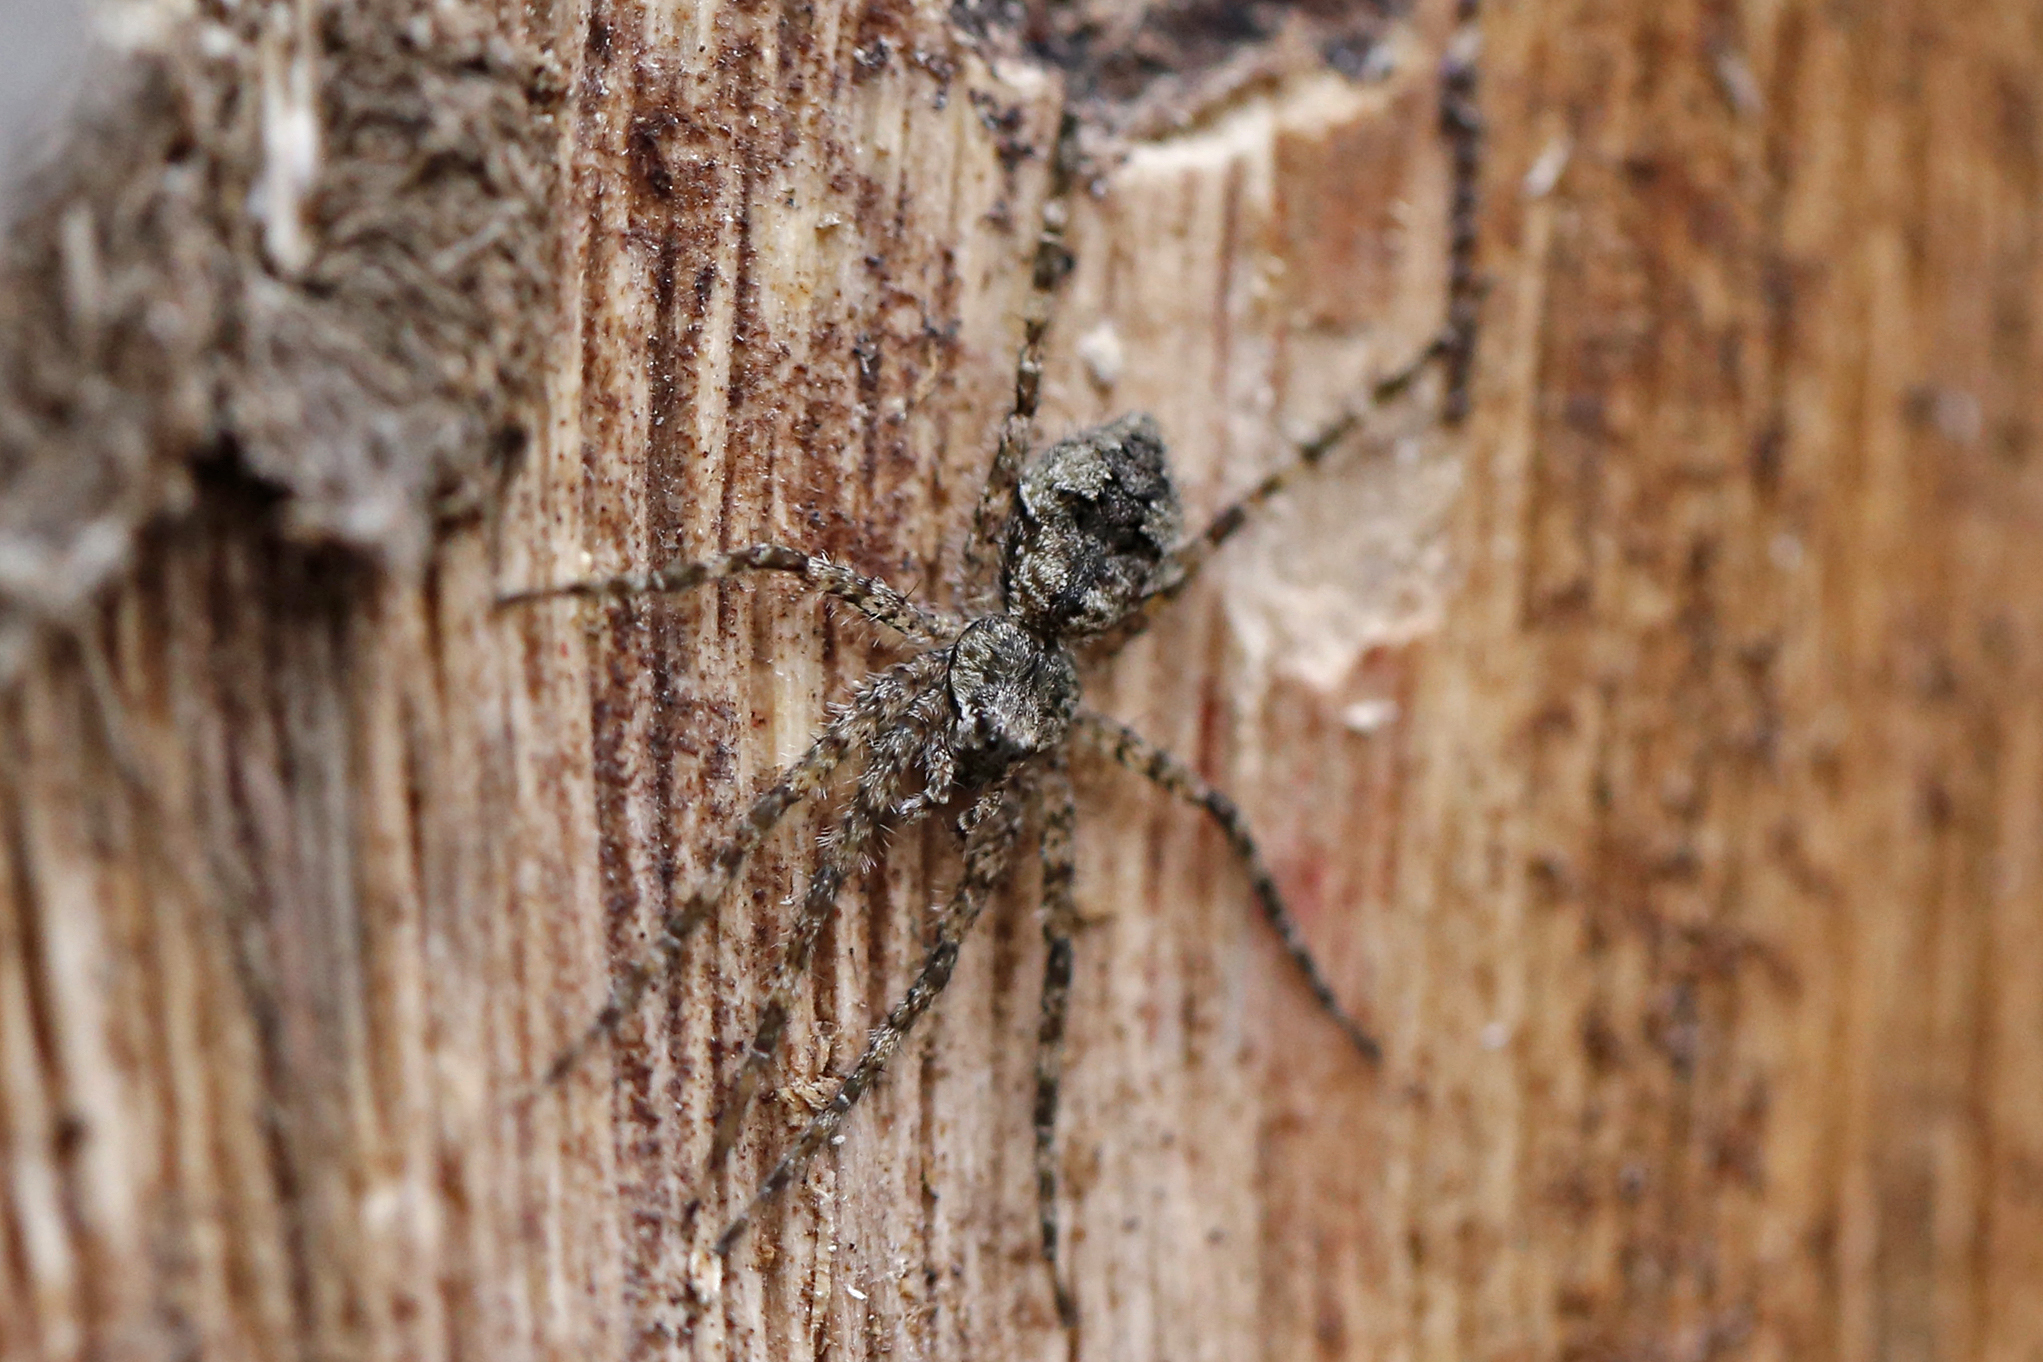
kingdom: Animalia
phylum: Arthropoda
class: Arachnida
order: Araneae
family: Pisauridae
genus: Dolomedes
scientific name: Dolomedes albineus
